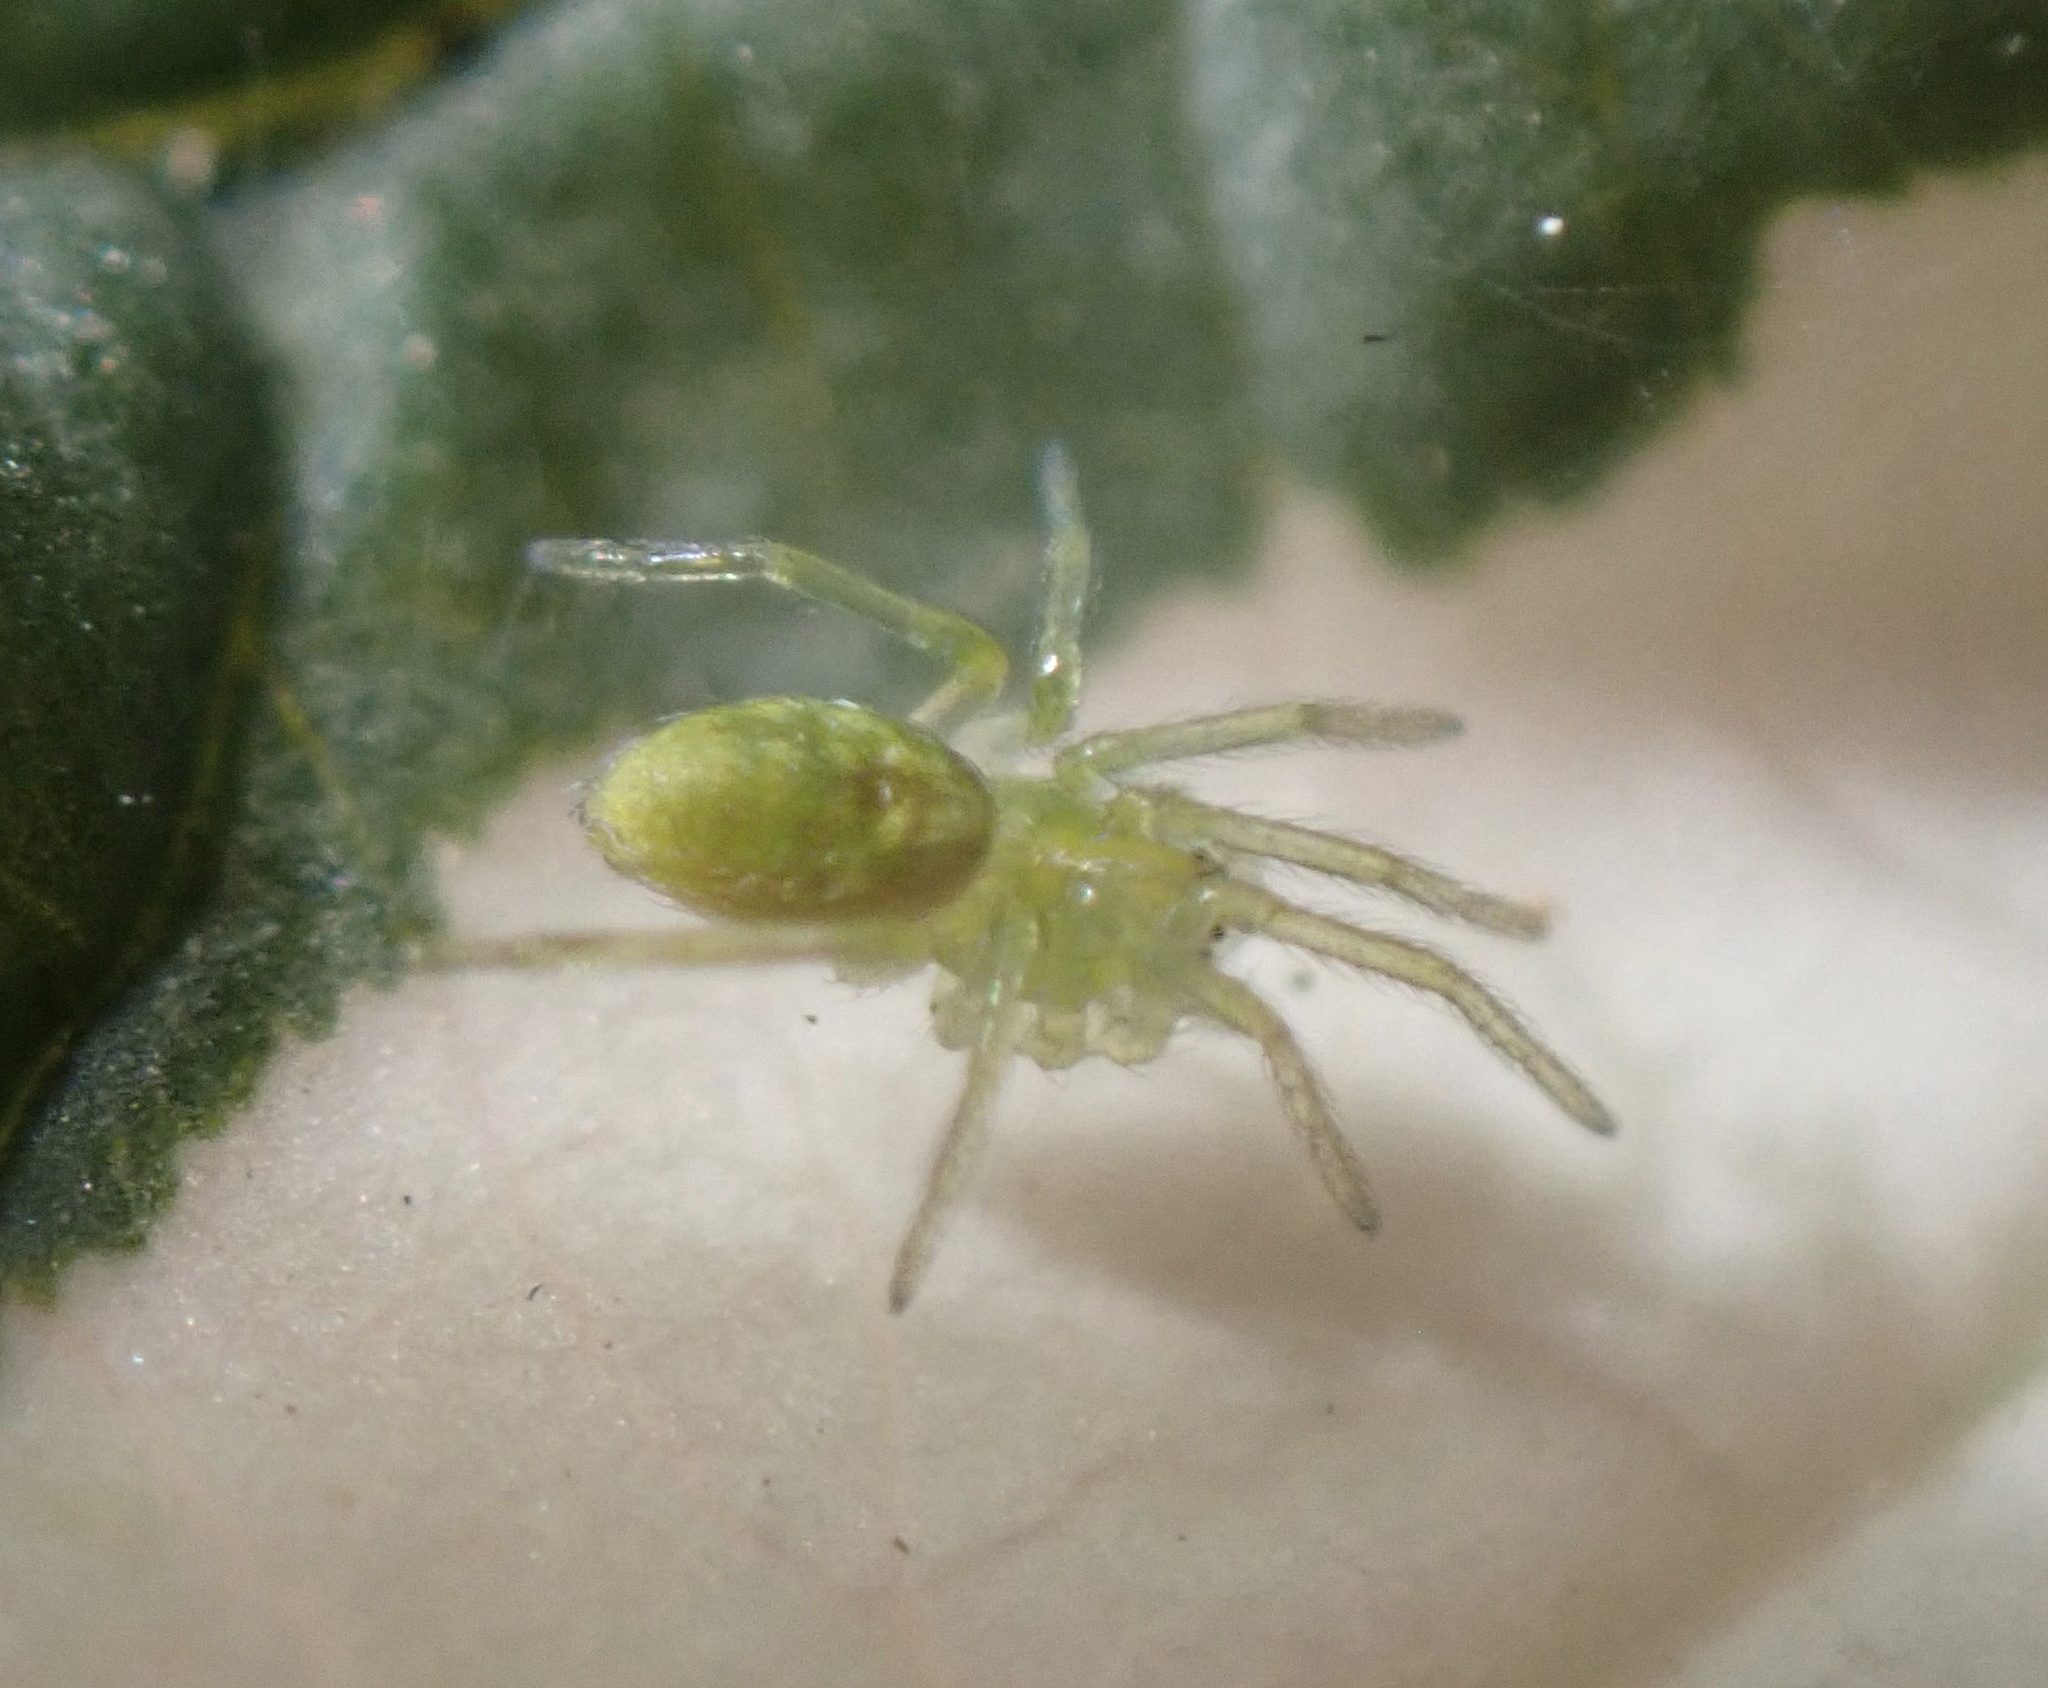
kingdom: Animalia
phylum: Arthropoda
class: Arachnida
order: Araneae
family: Dictynidae
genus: Nigma
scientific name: Nigma walckenaeri
